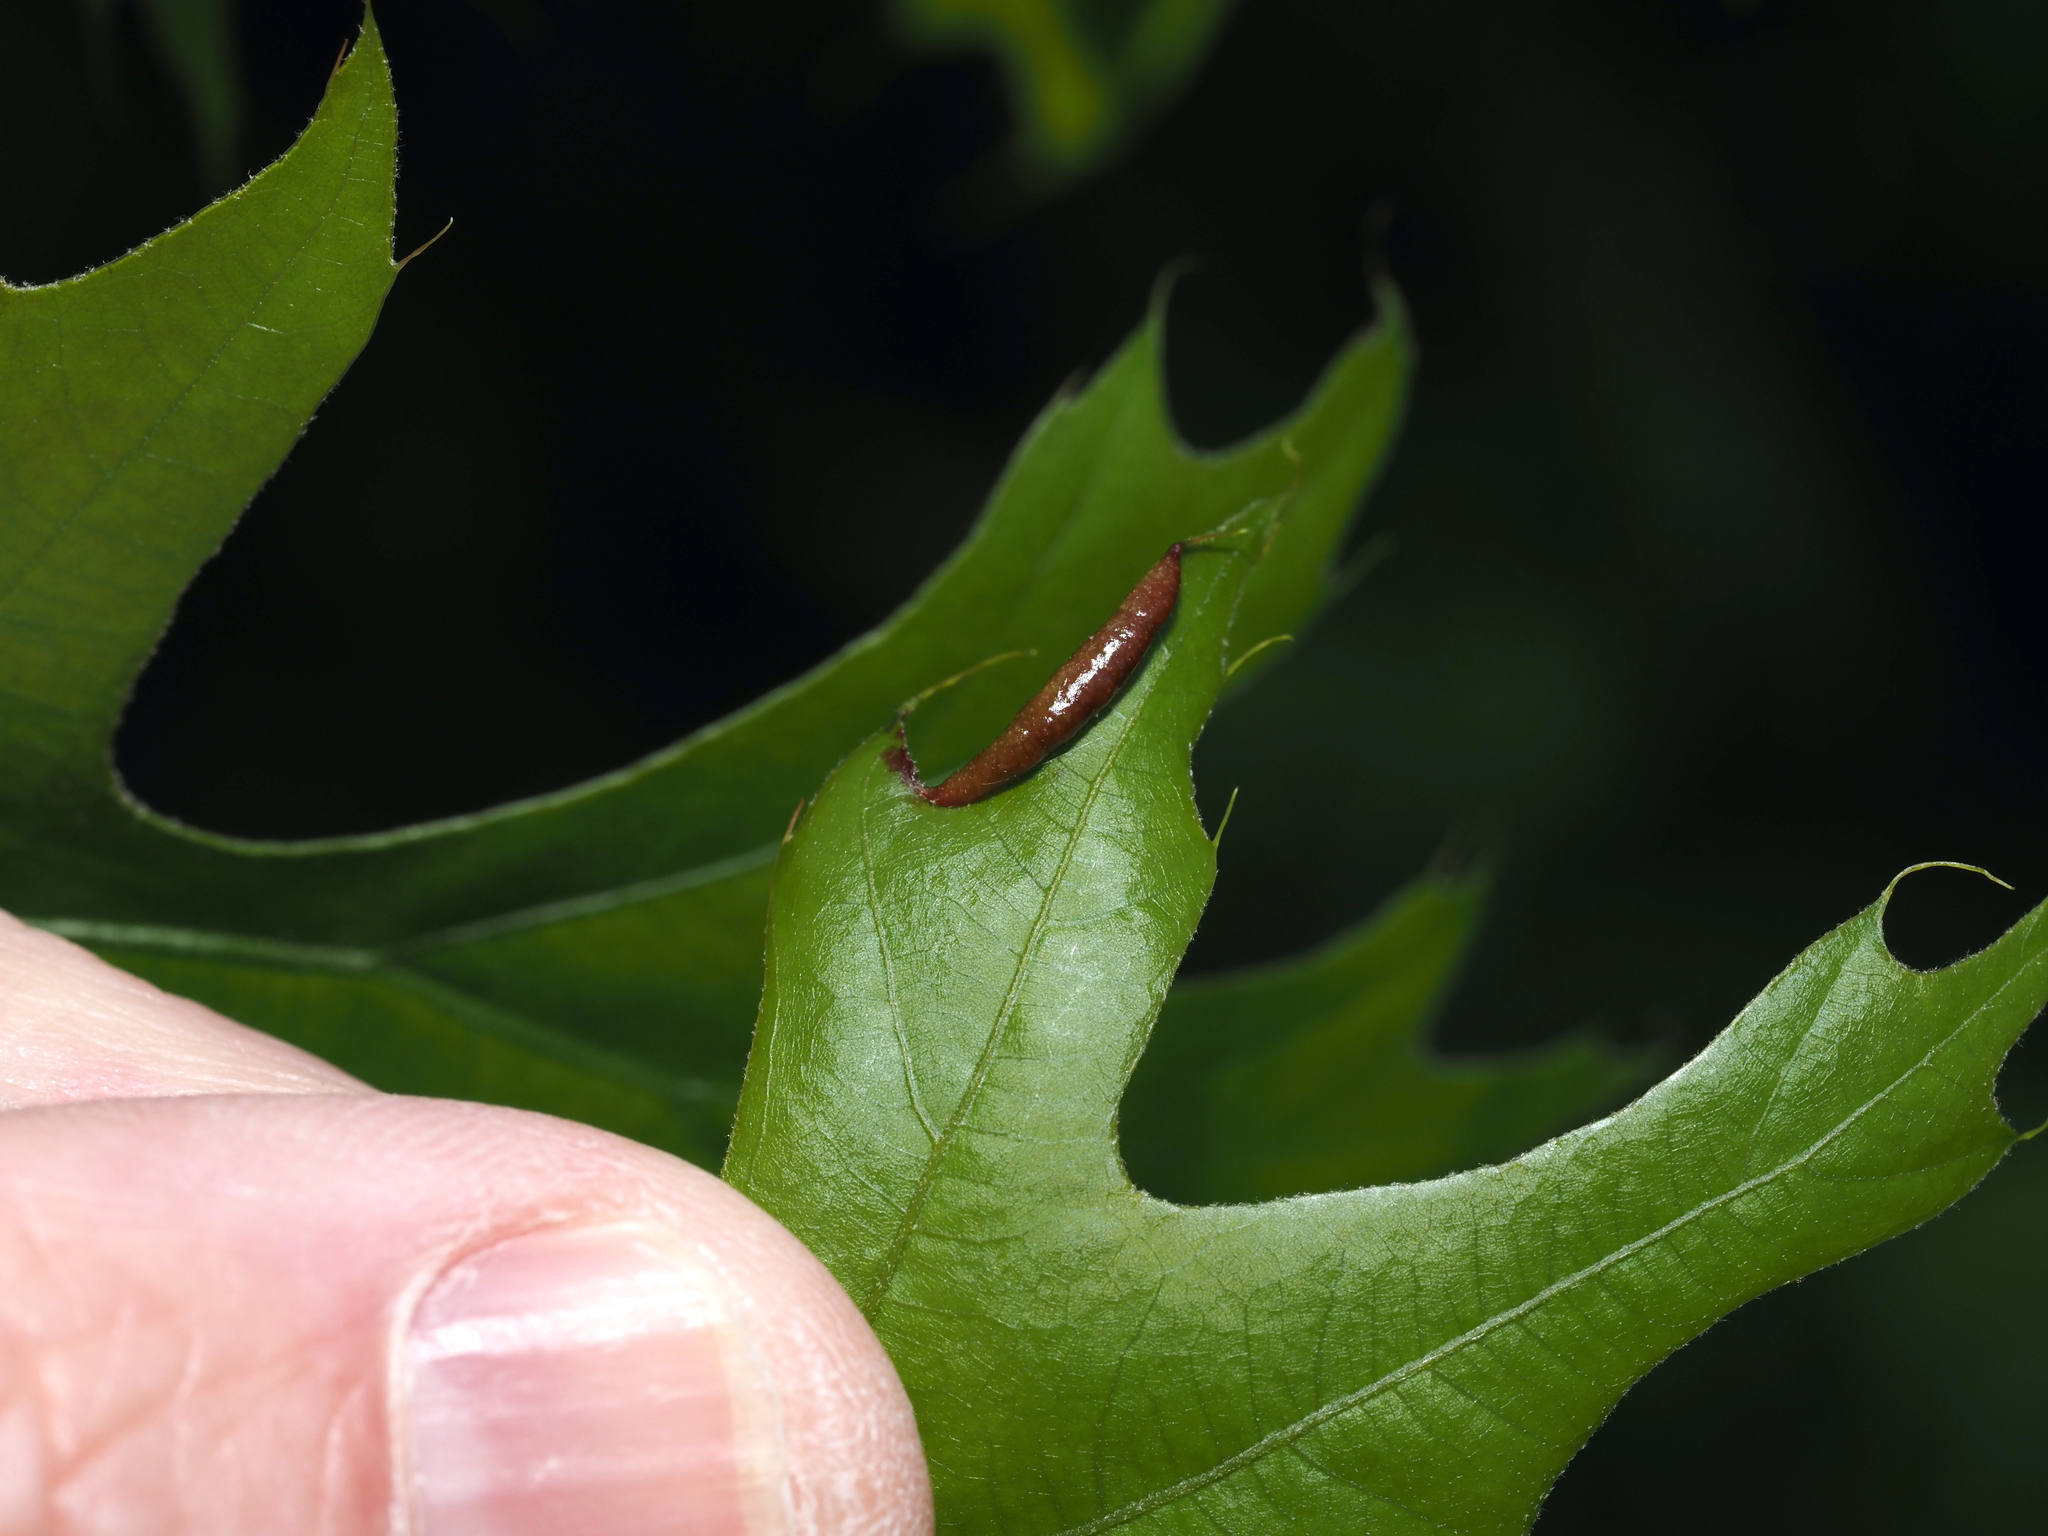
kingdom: Animalia
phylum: Arthropoda
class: Insecta
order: Diptera
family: Cecidomyiidae
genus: Macrodiplosis
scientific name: Macrodiplosis erubescens
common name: Marginal leaf fold gall midge
